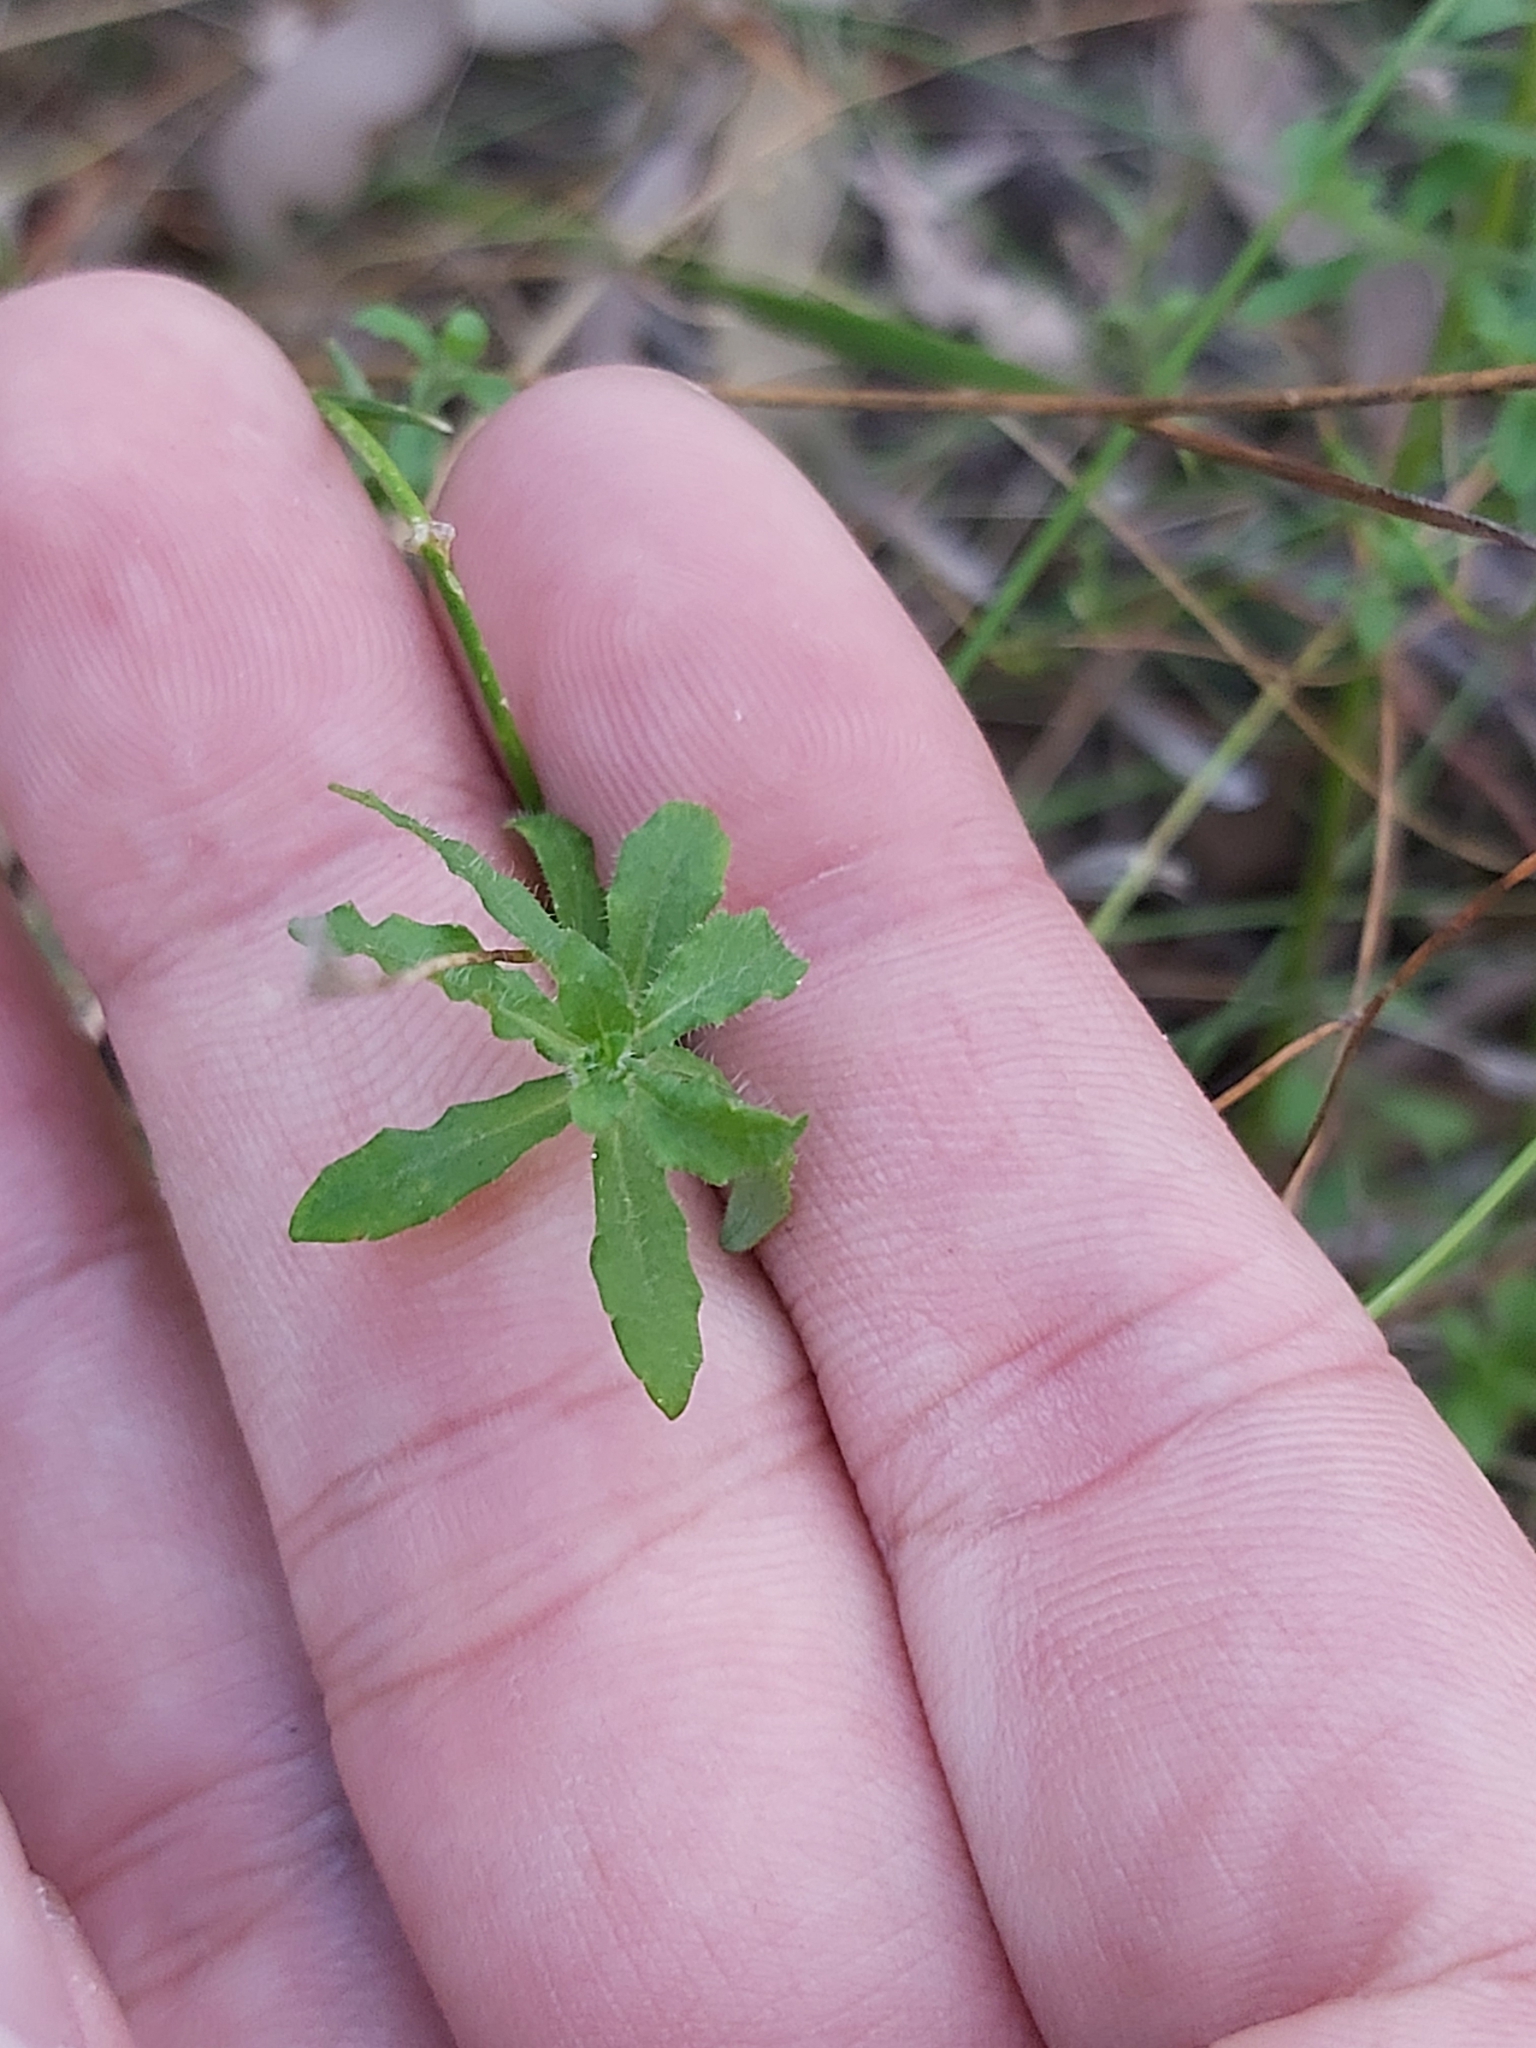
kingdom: Plantae
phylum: Tracheophyta
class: Magnoliopsida
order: Asterales
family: Campanulaceae
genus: Wahlenbergia
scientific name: Wahlenbergia stricta
